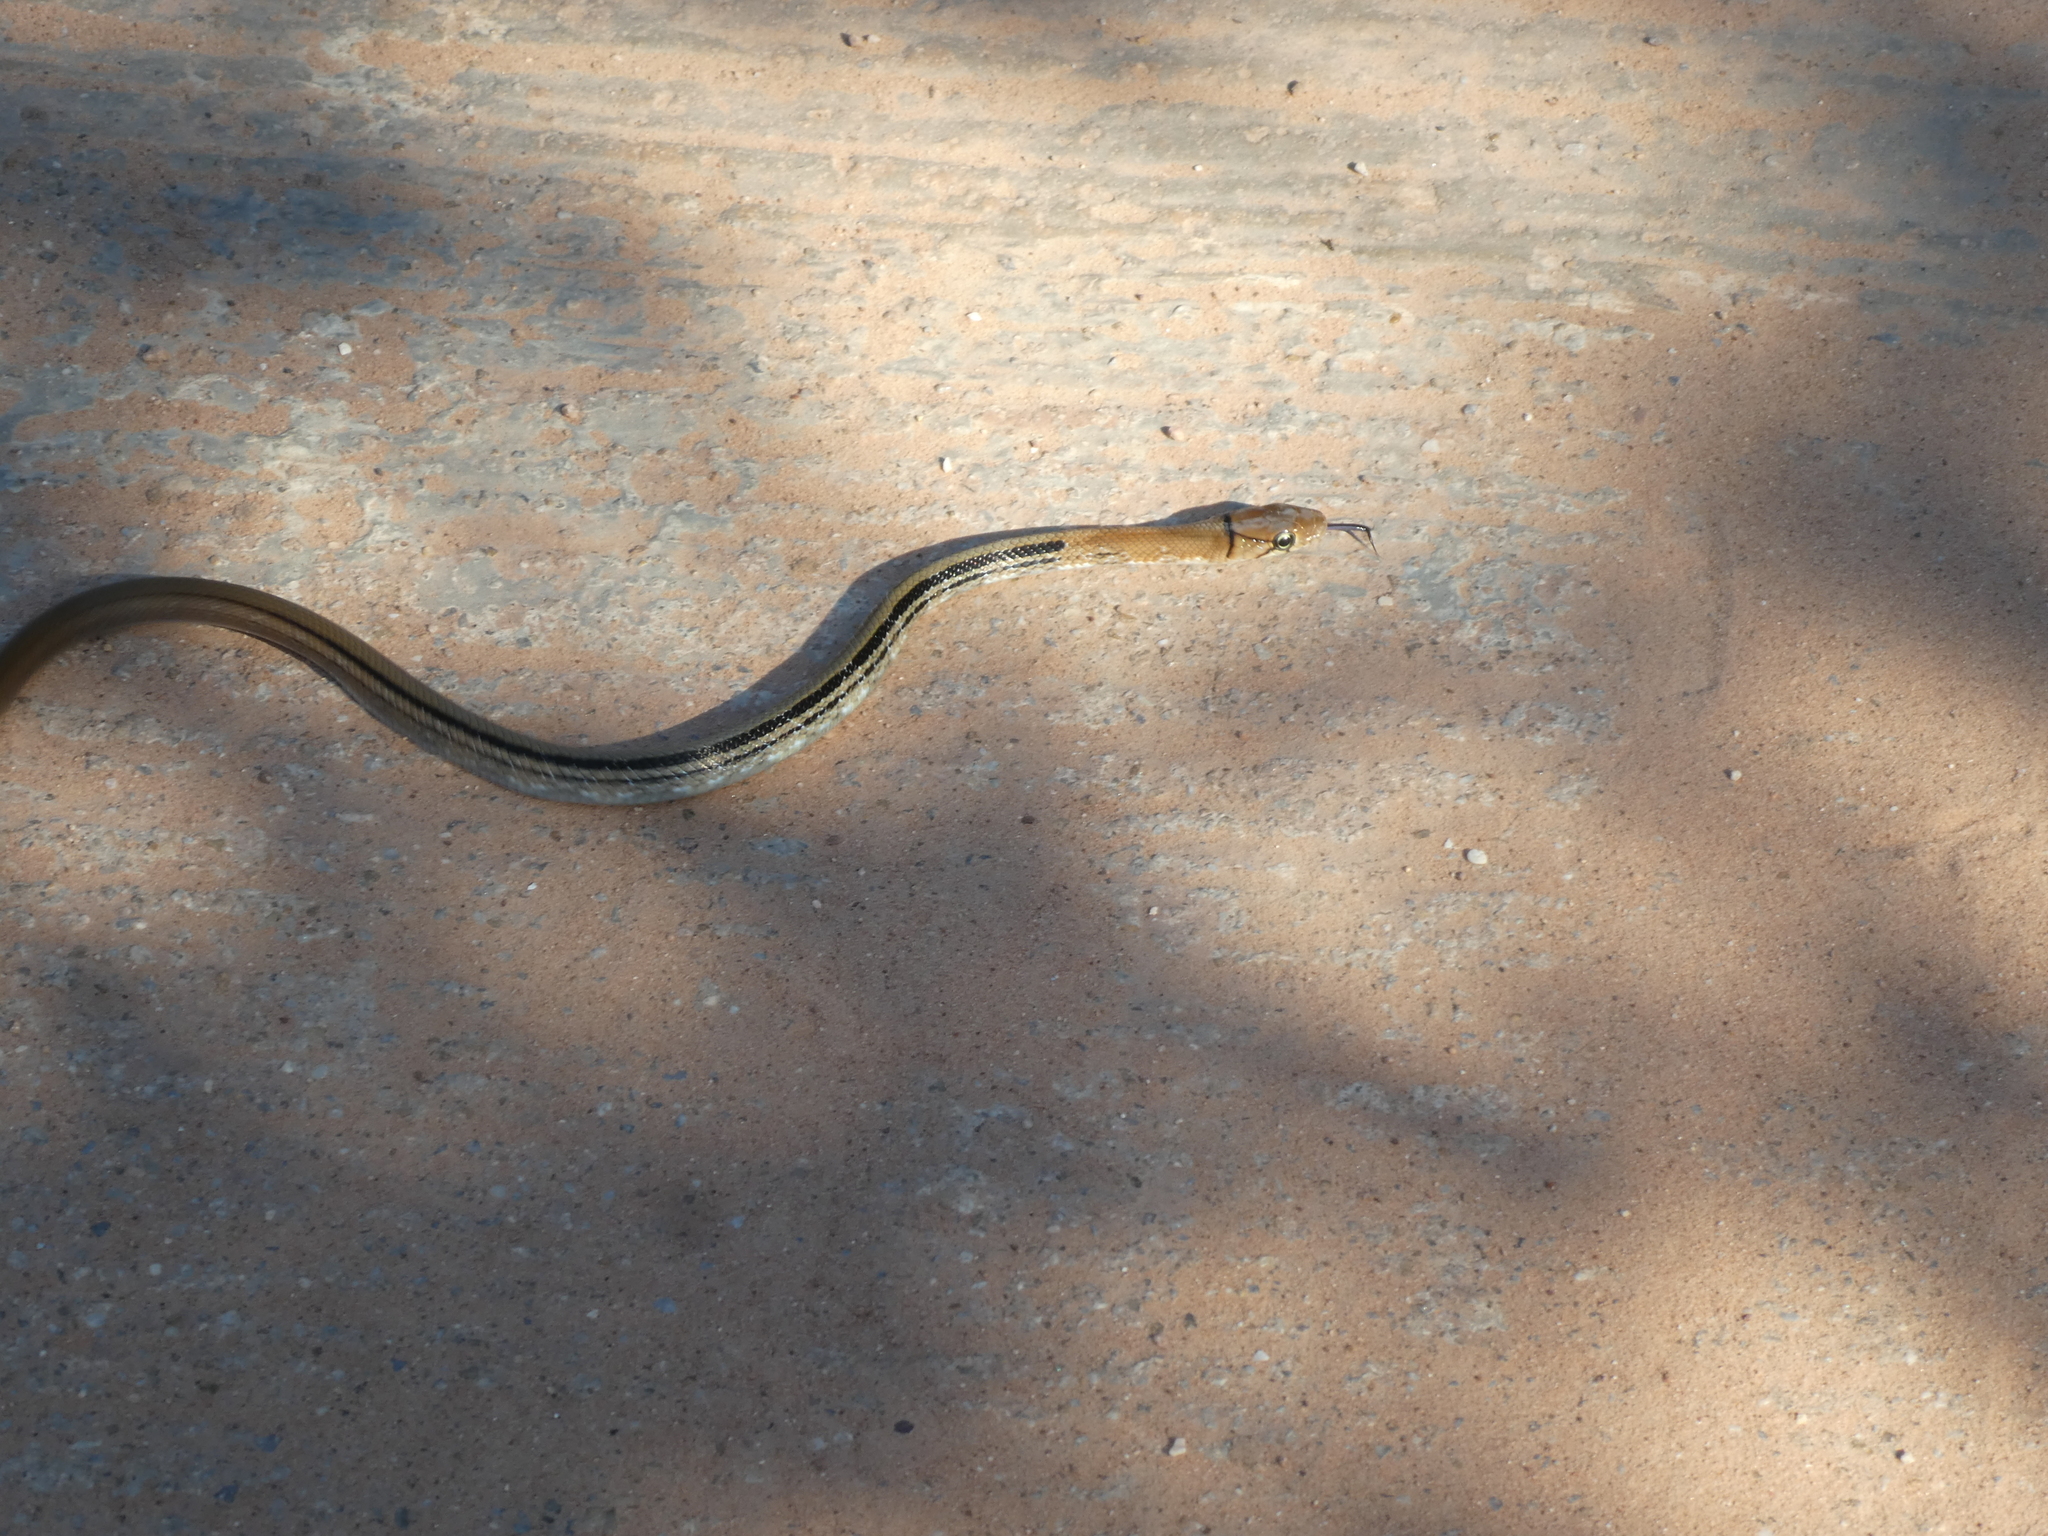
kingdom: Animalia
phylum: Chordata
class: Squamata
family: Colubridae
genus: Coelognathus
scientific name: Coelognathus radiatus
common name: Copperhead rat snake
